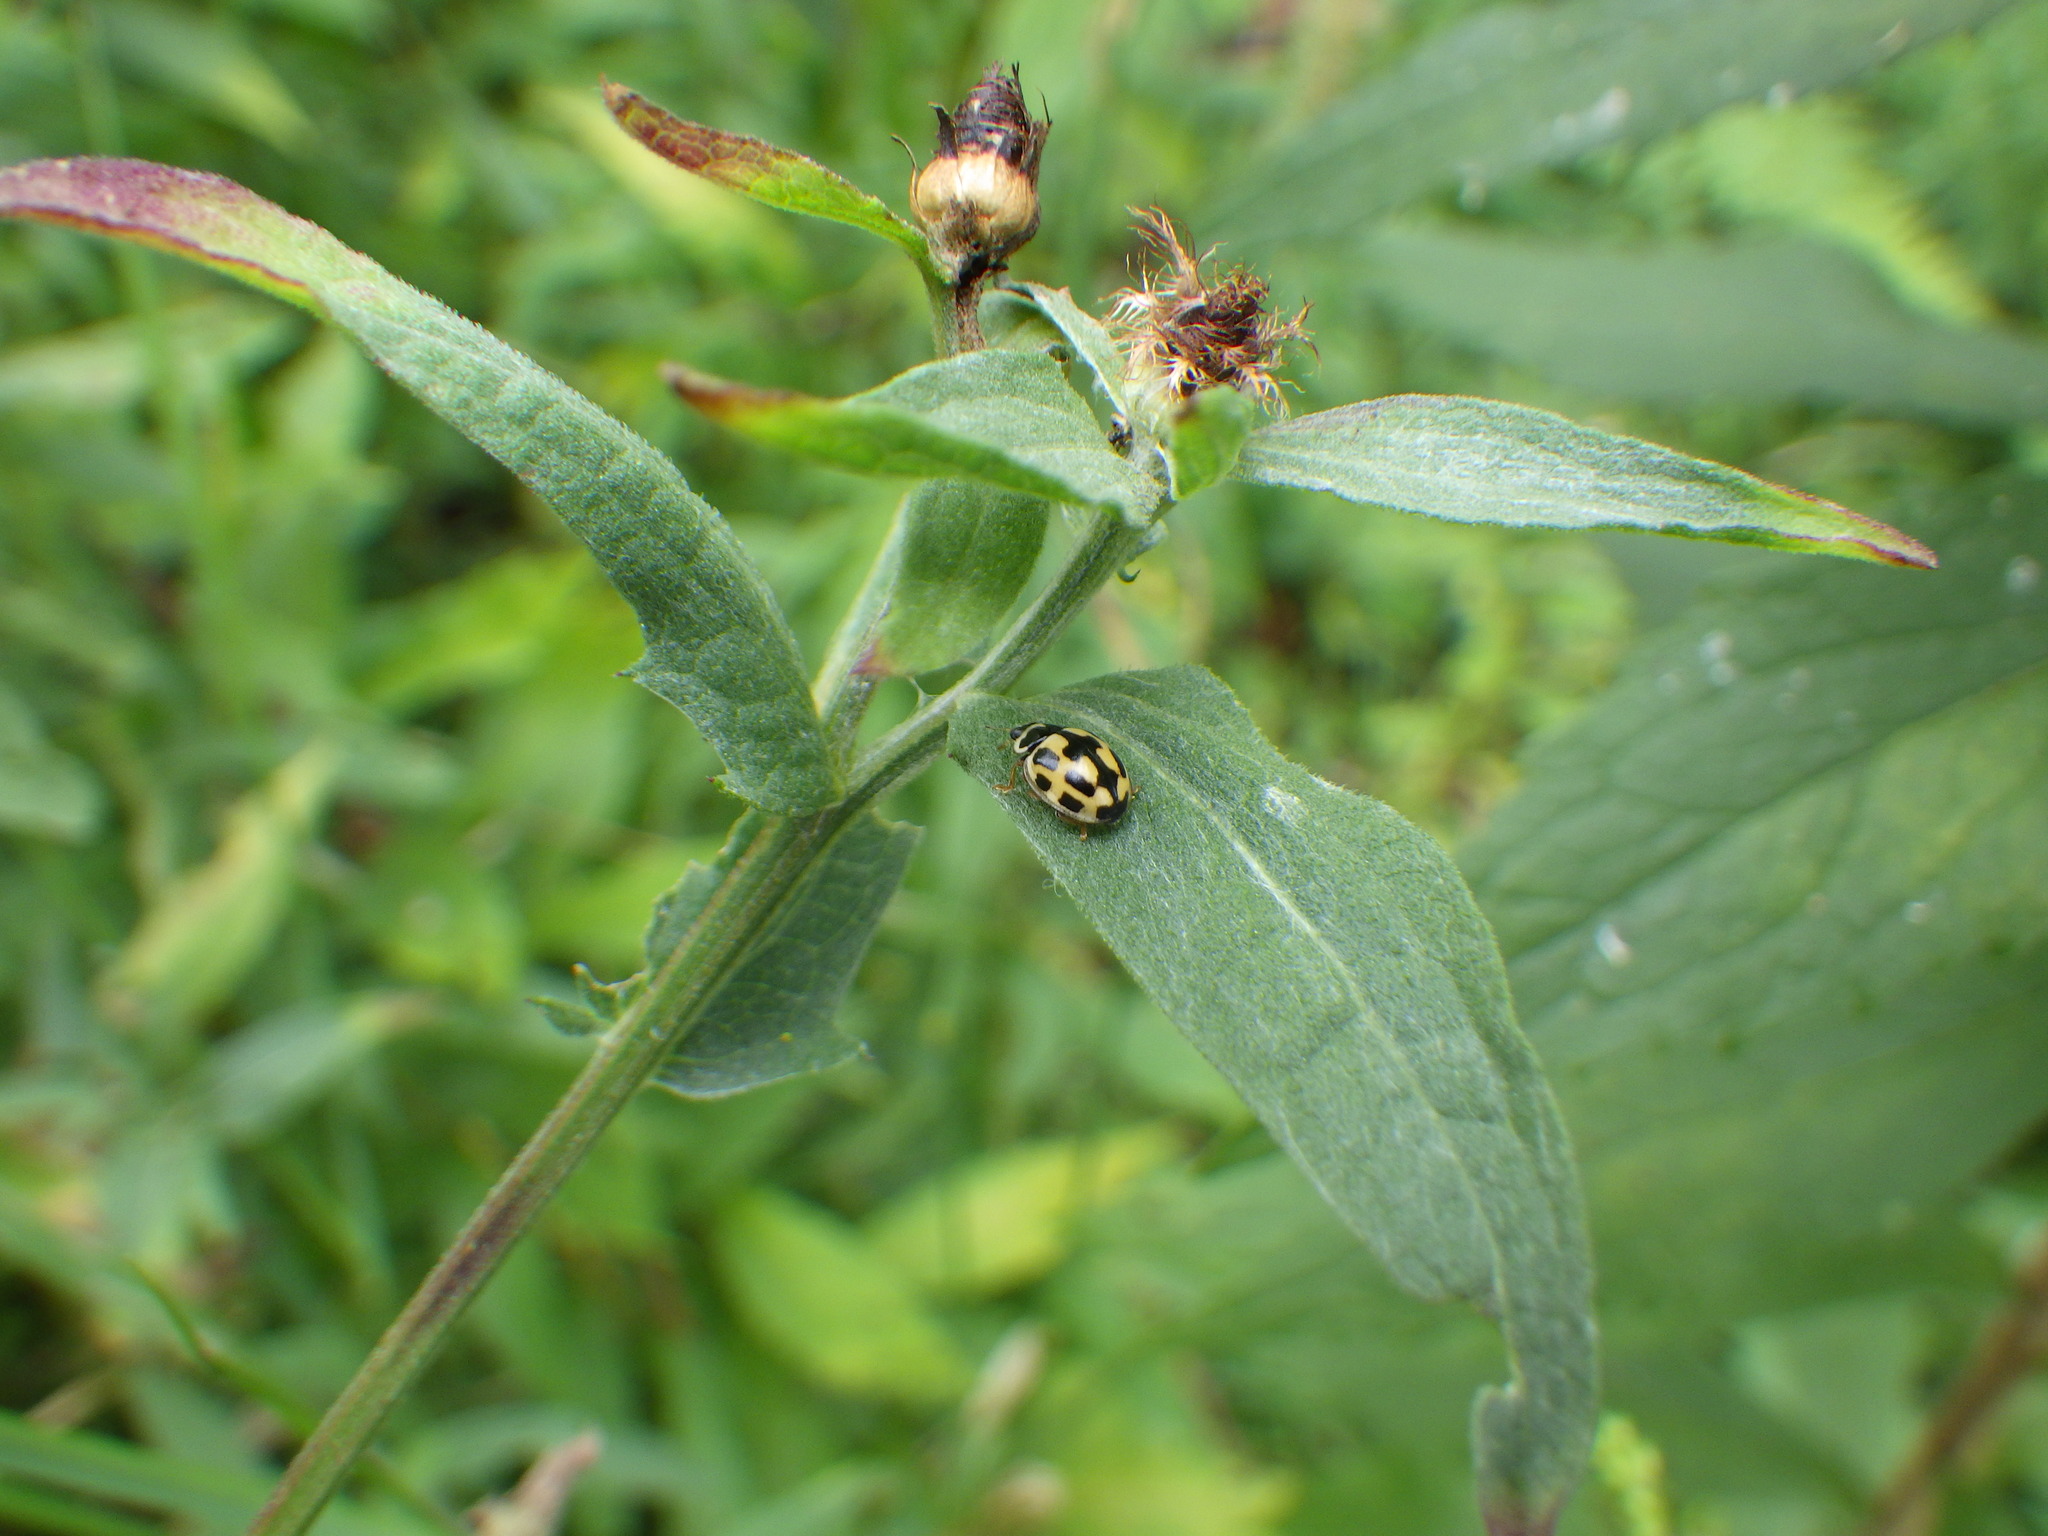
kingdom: Animalia
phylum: Arthropoda
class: Insecta
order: Coleoptera
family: Coccinellidae
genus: Propylaea
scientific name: Propylaea quatuordecimpunctata
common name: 14-spotted ladybird beetle
